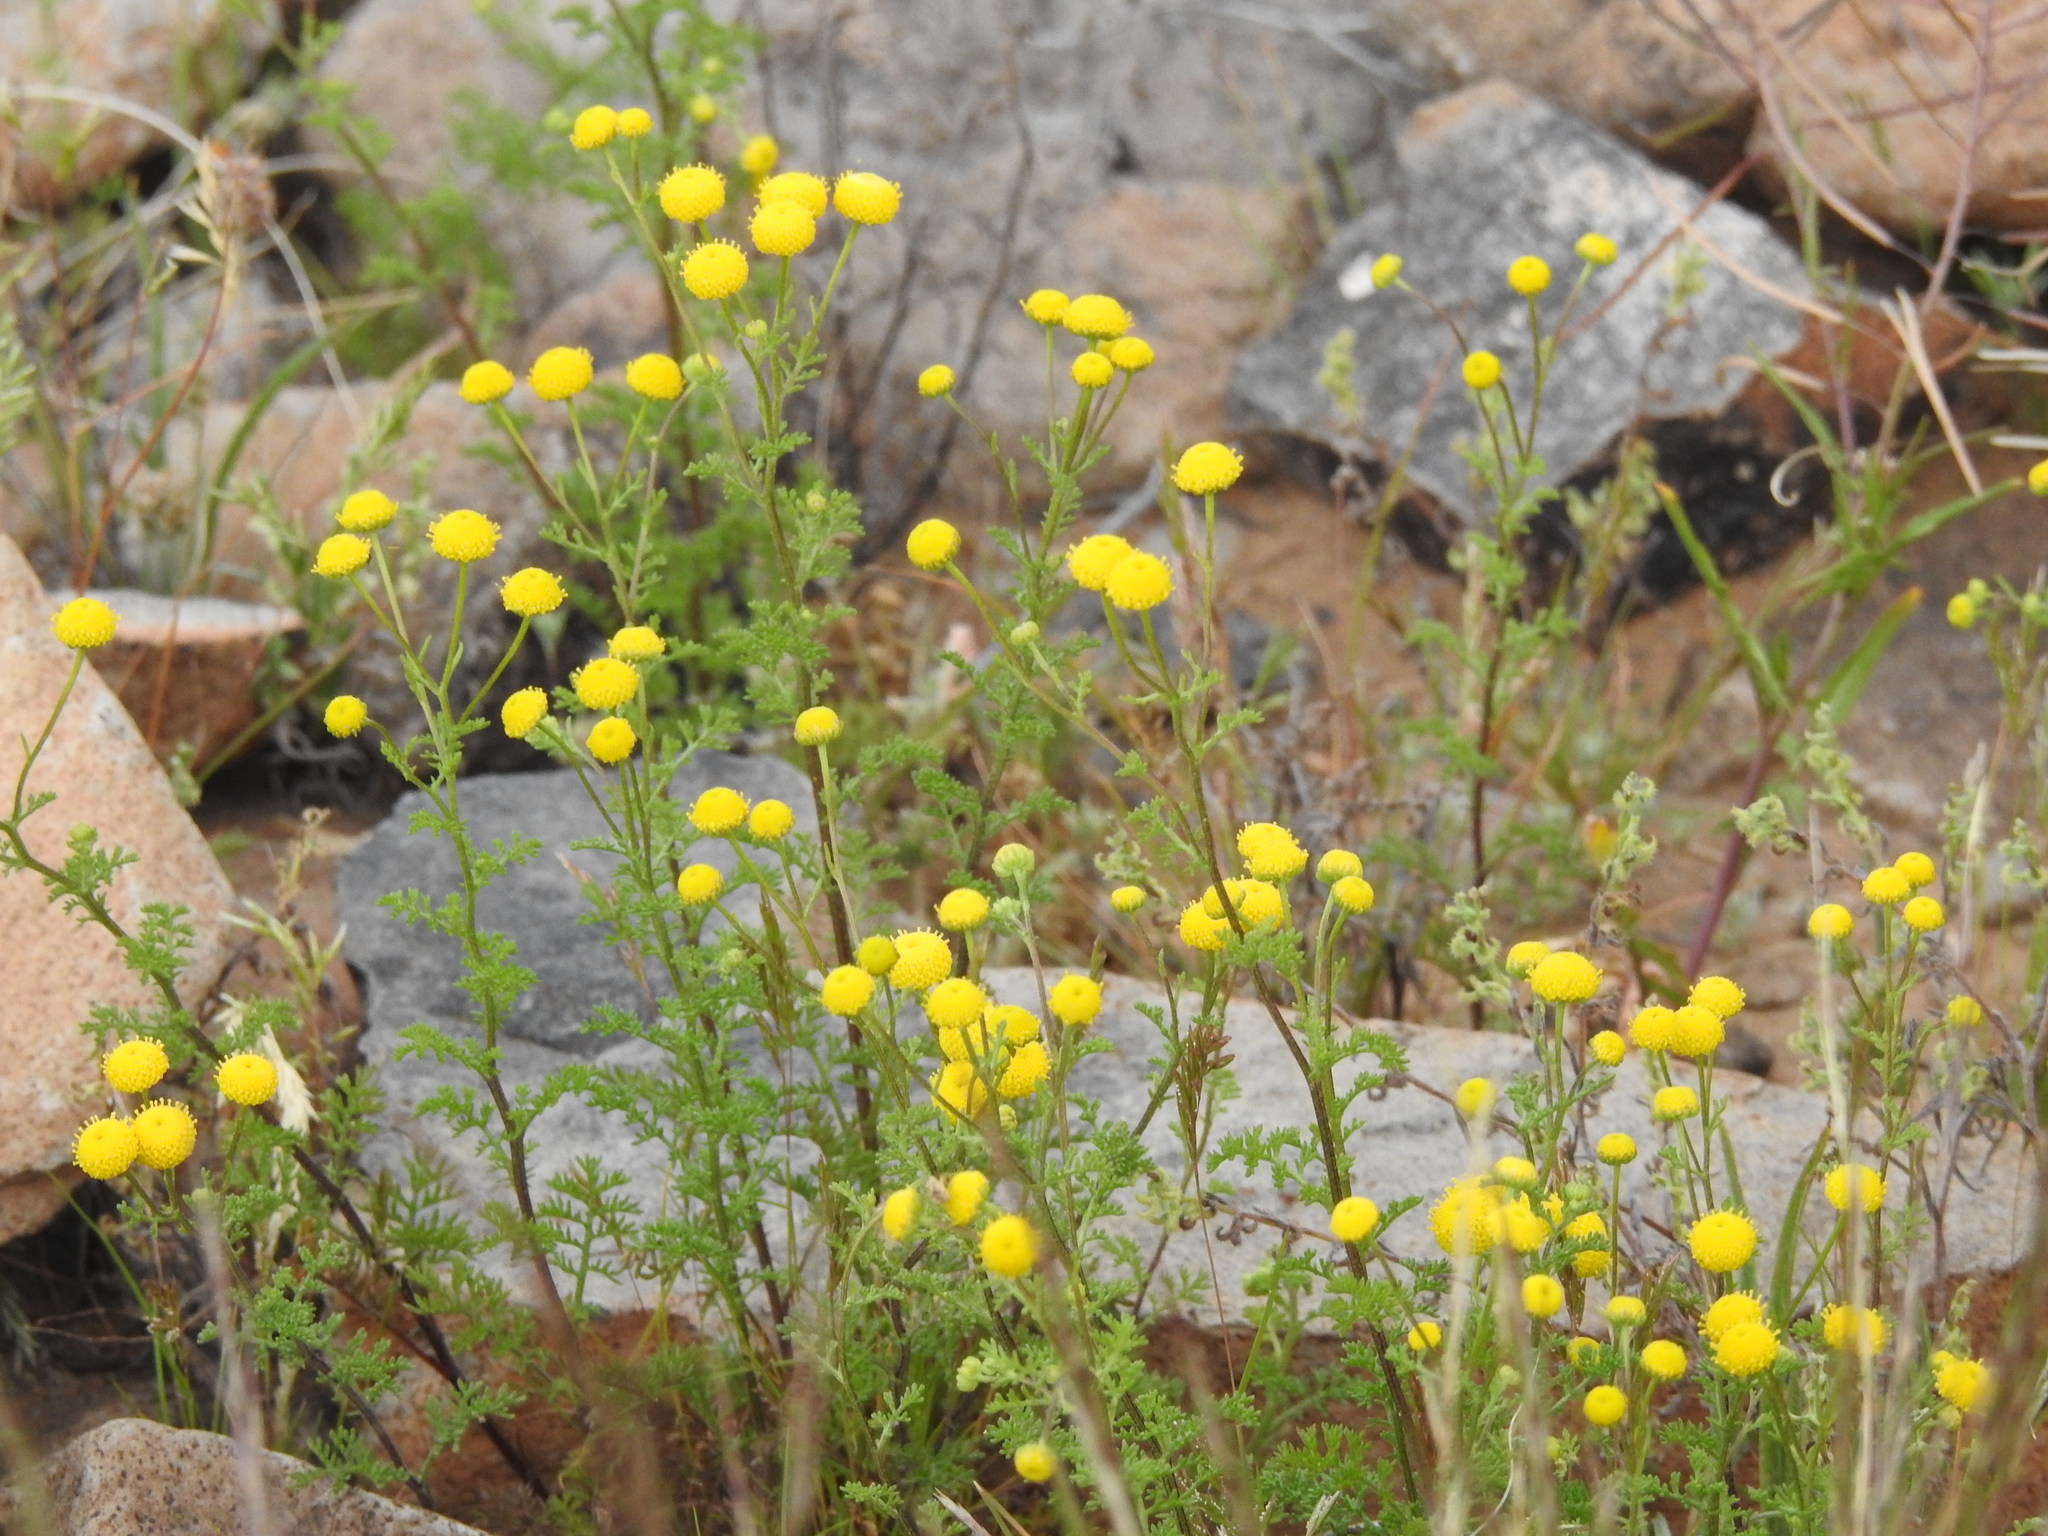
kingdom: Plantae
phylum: Tracheophyta
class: Magnoliopsida
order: Asterales
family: Asteraceae
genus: Oncosiphon
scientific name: Oncosiphon pilulifer
